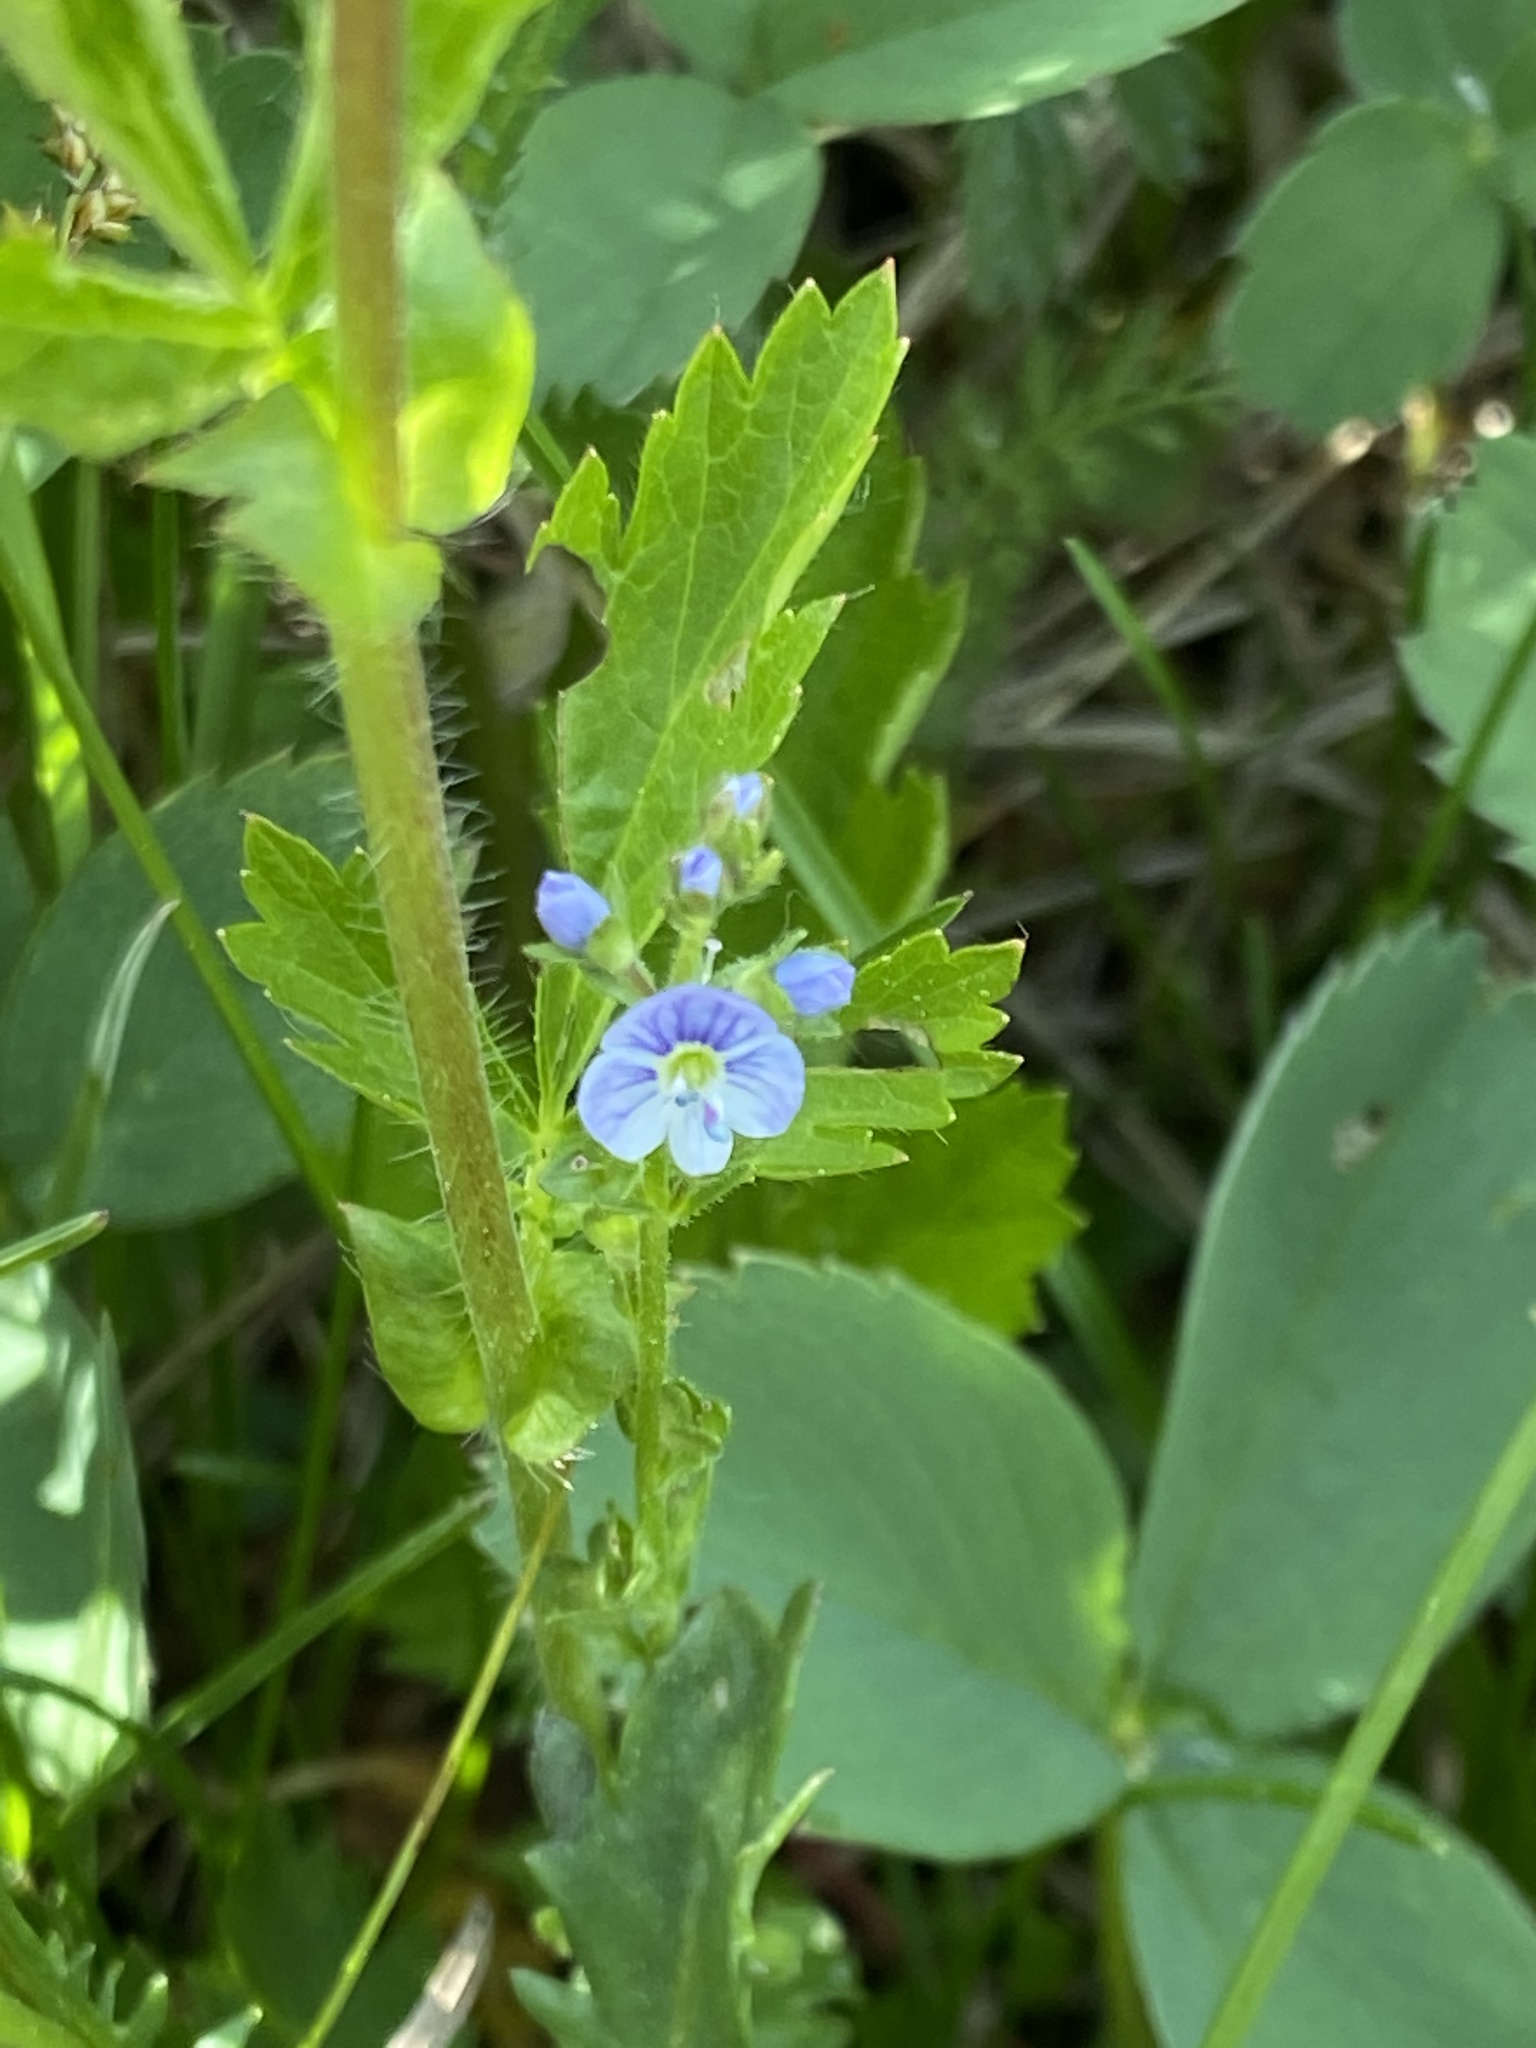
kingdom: Plantae
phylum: Tracheophyta
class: Magnoliopsida
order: Lamiales
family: Plantaginaceae
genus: Veronica
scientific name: Veronica serpyllifolia
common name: Thyme-leaved speedwell
